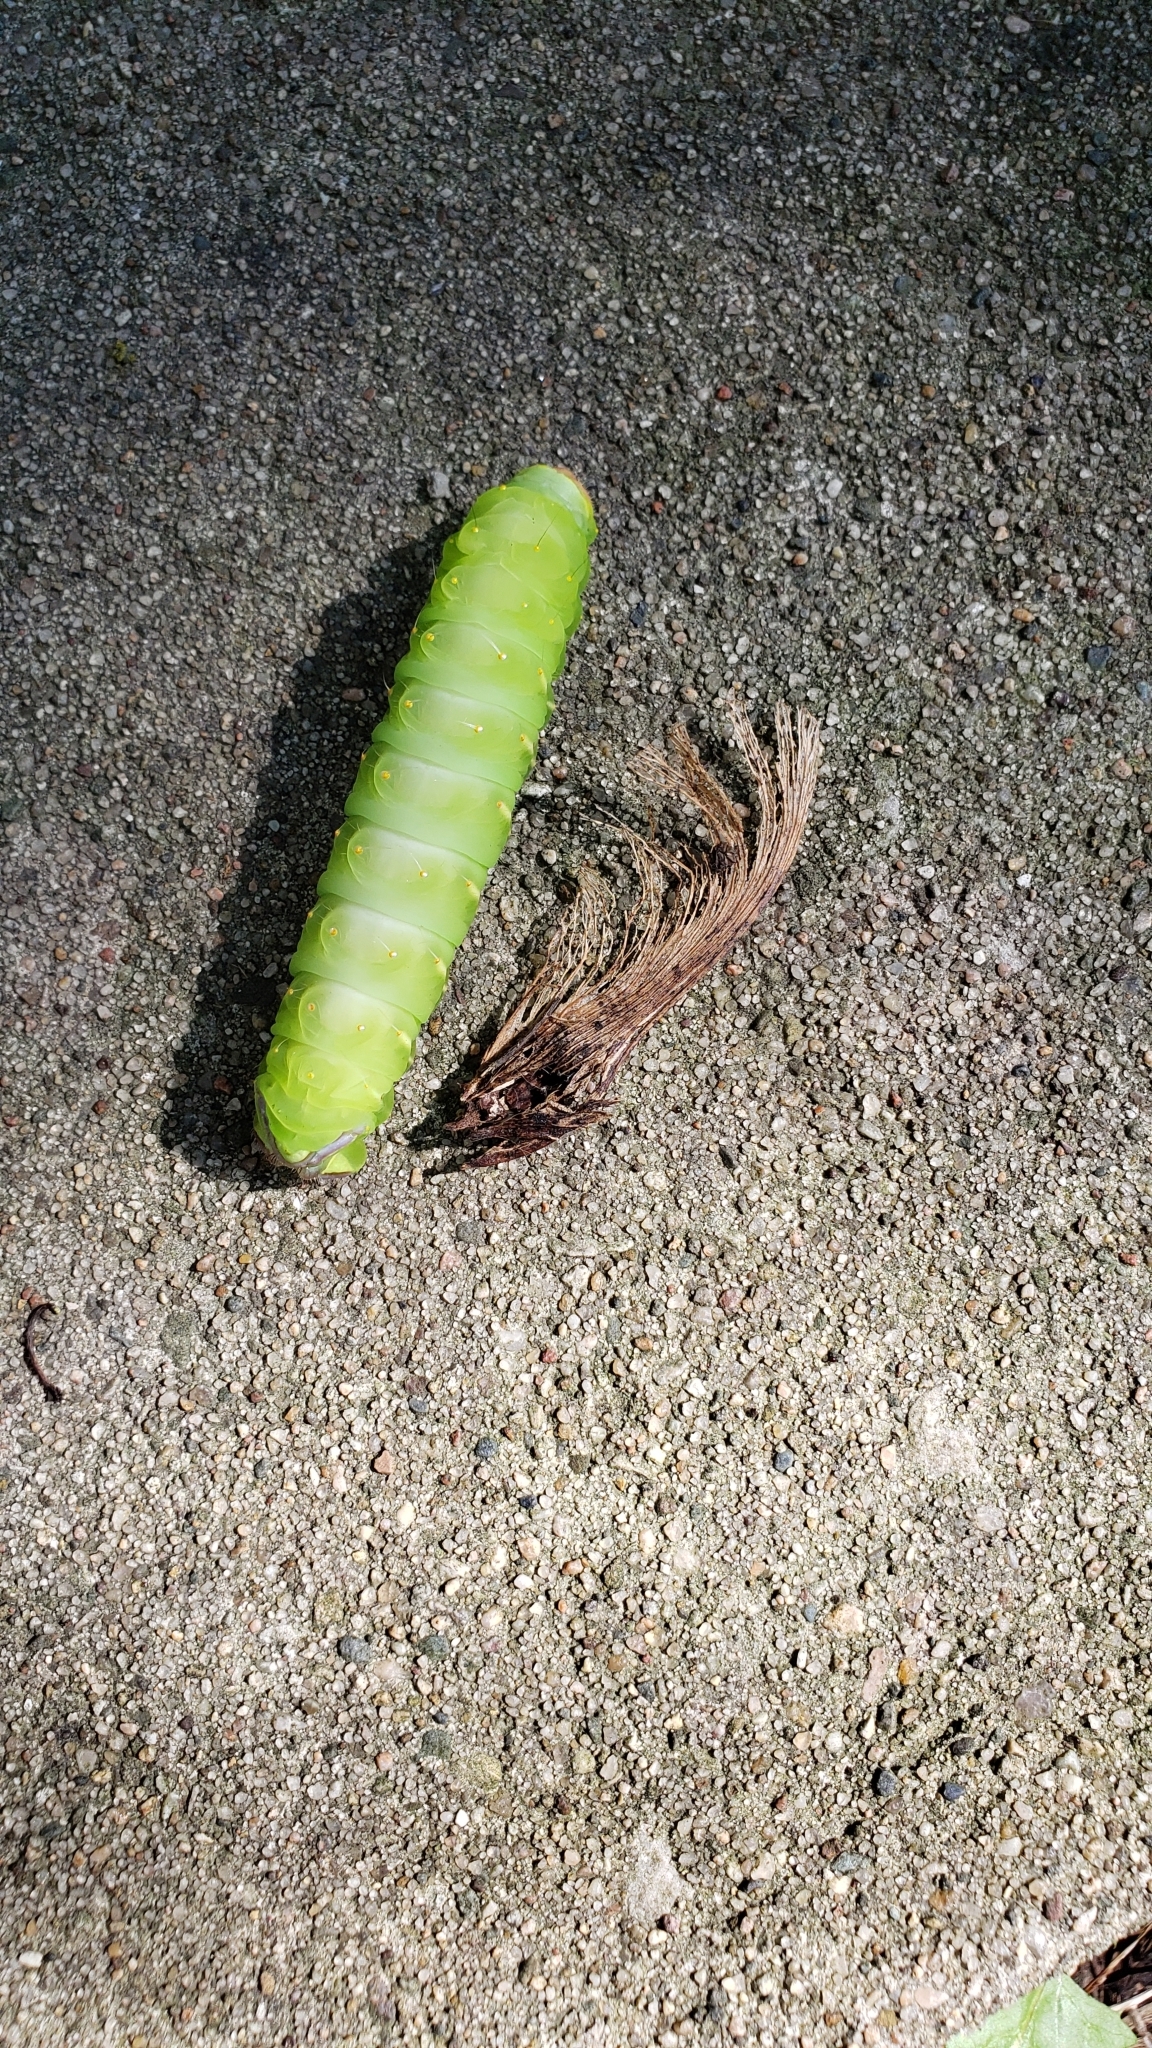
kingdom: Animalia
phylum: Arthropoda
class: Insecta
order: Lepidoptera
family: Saturniidae
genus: Antheraea
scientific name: Antheraea polyphemus
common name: Polyphemus moth
